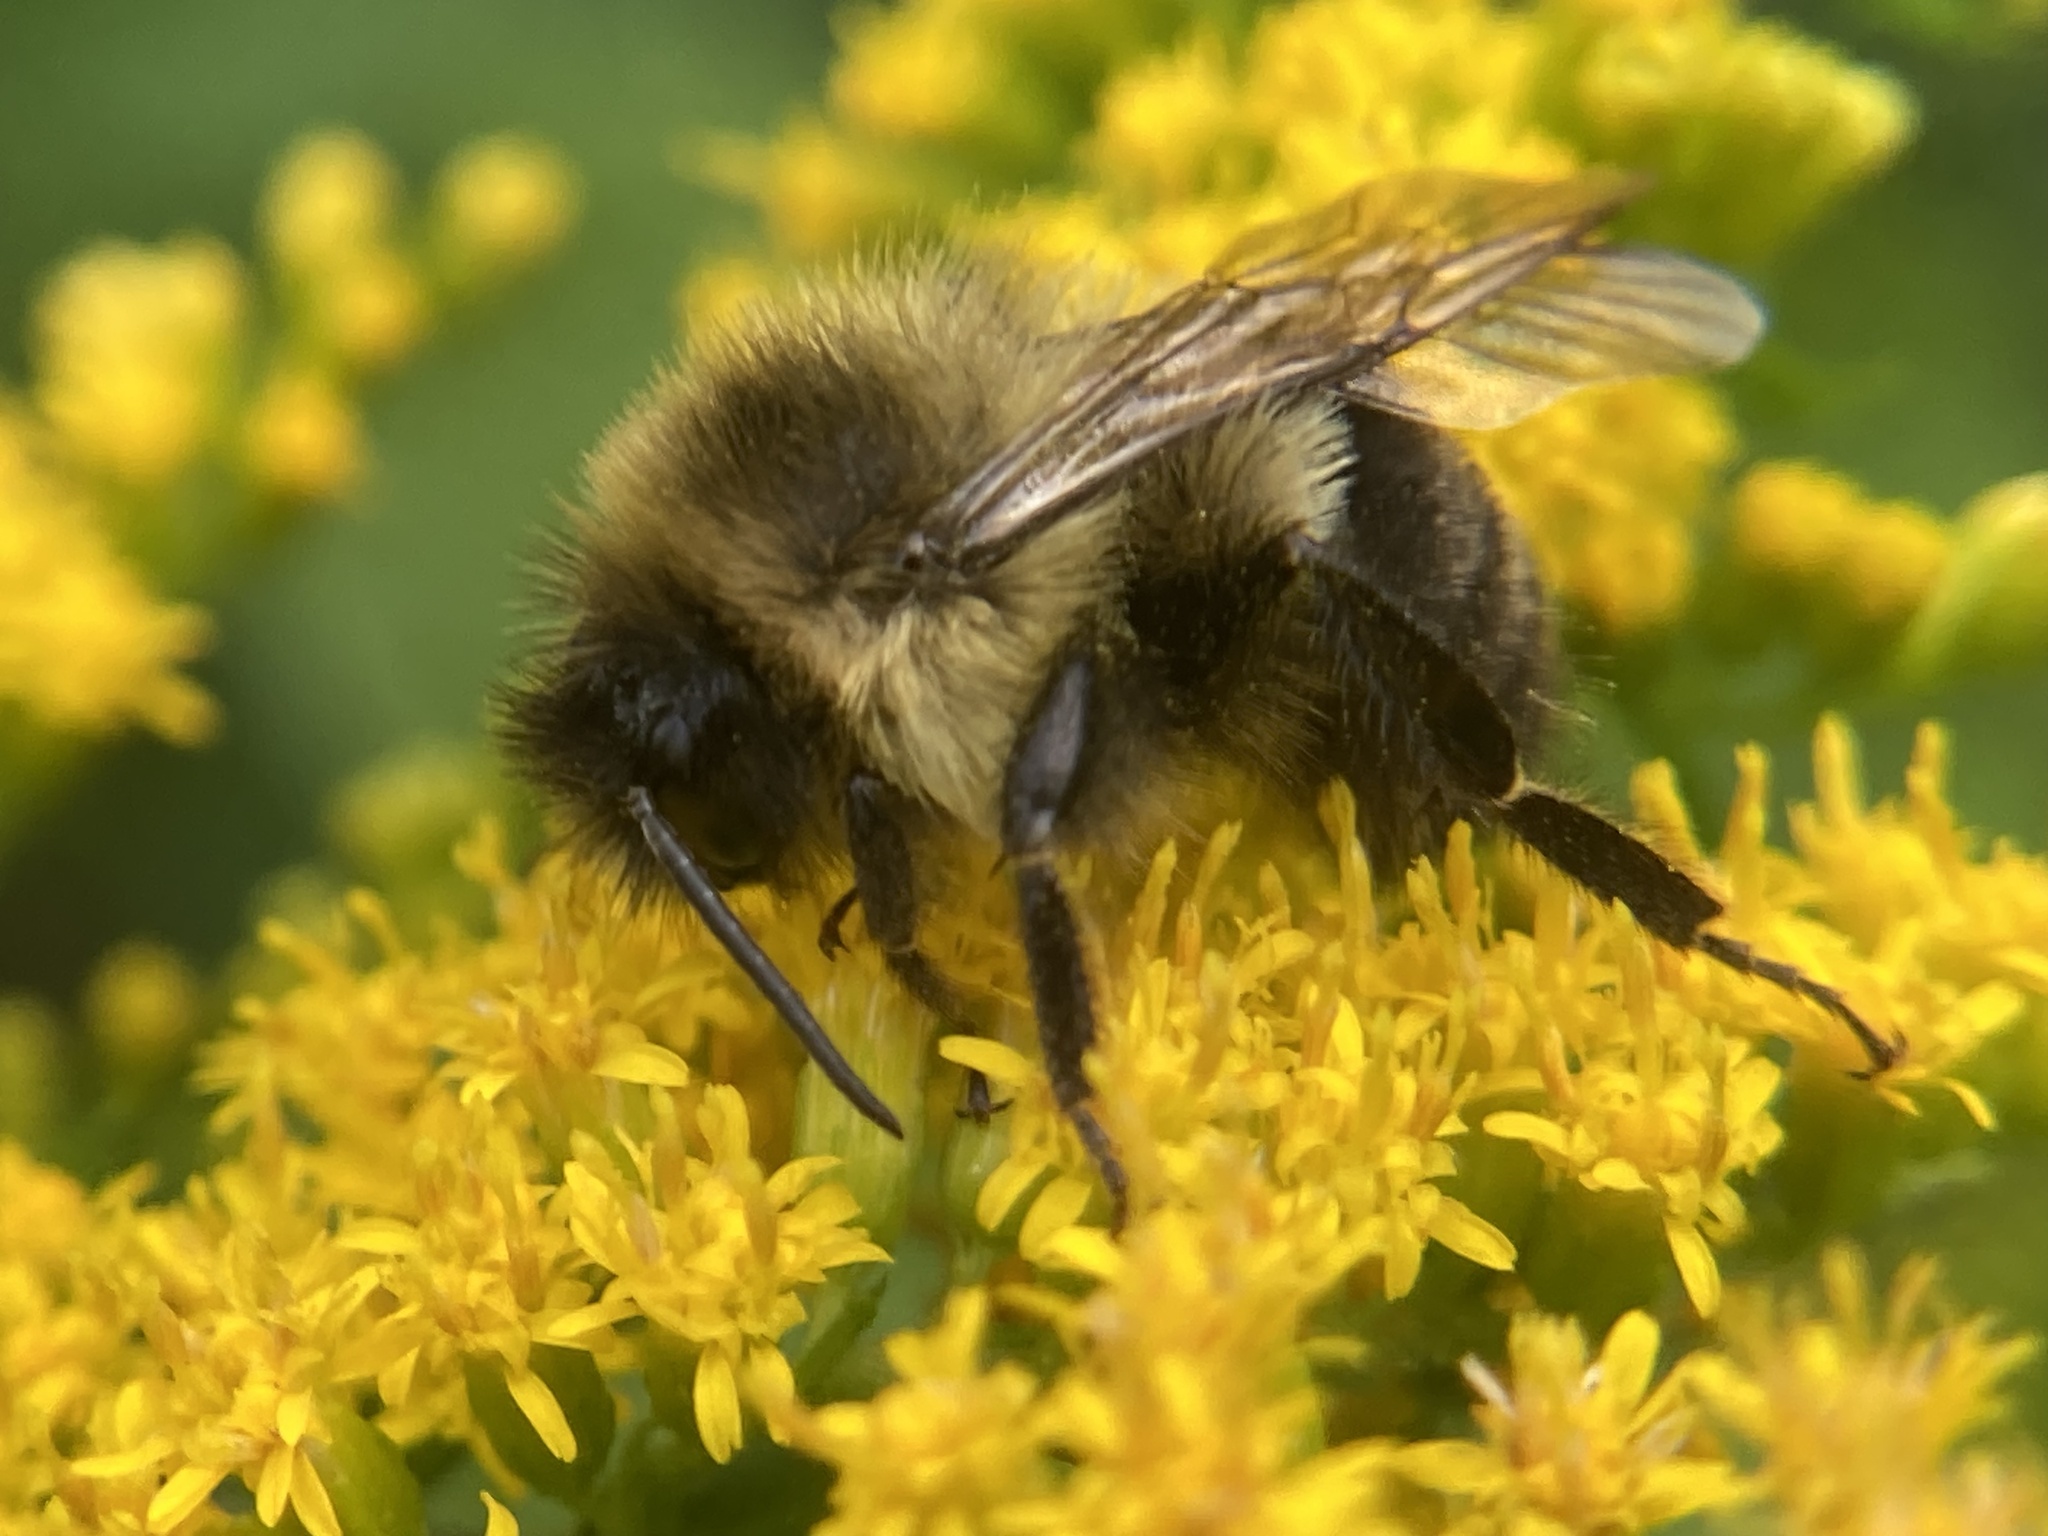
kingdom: Animalia
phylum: Arthropoda
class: Insecta
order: Hymenoptera
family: Apidae
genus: Bombus
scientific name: Bombus impatiens
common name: Common eastern bumble bee
